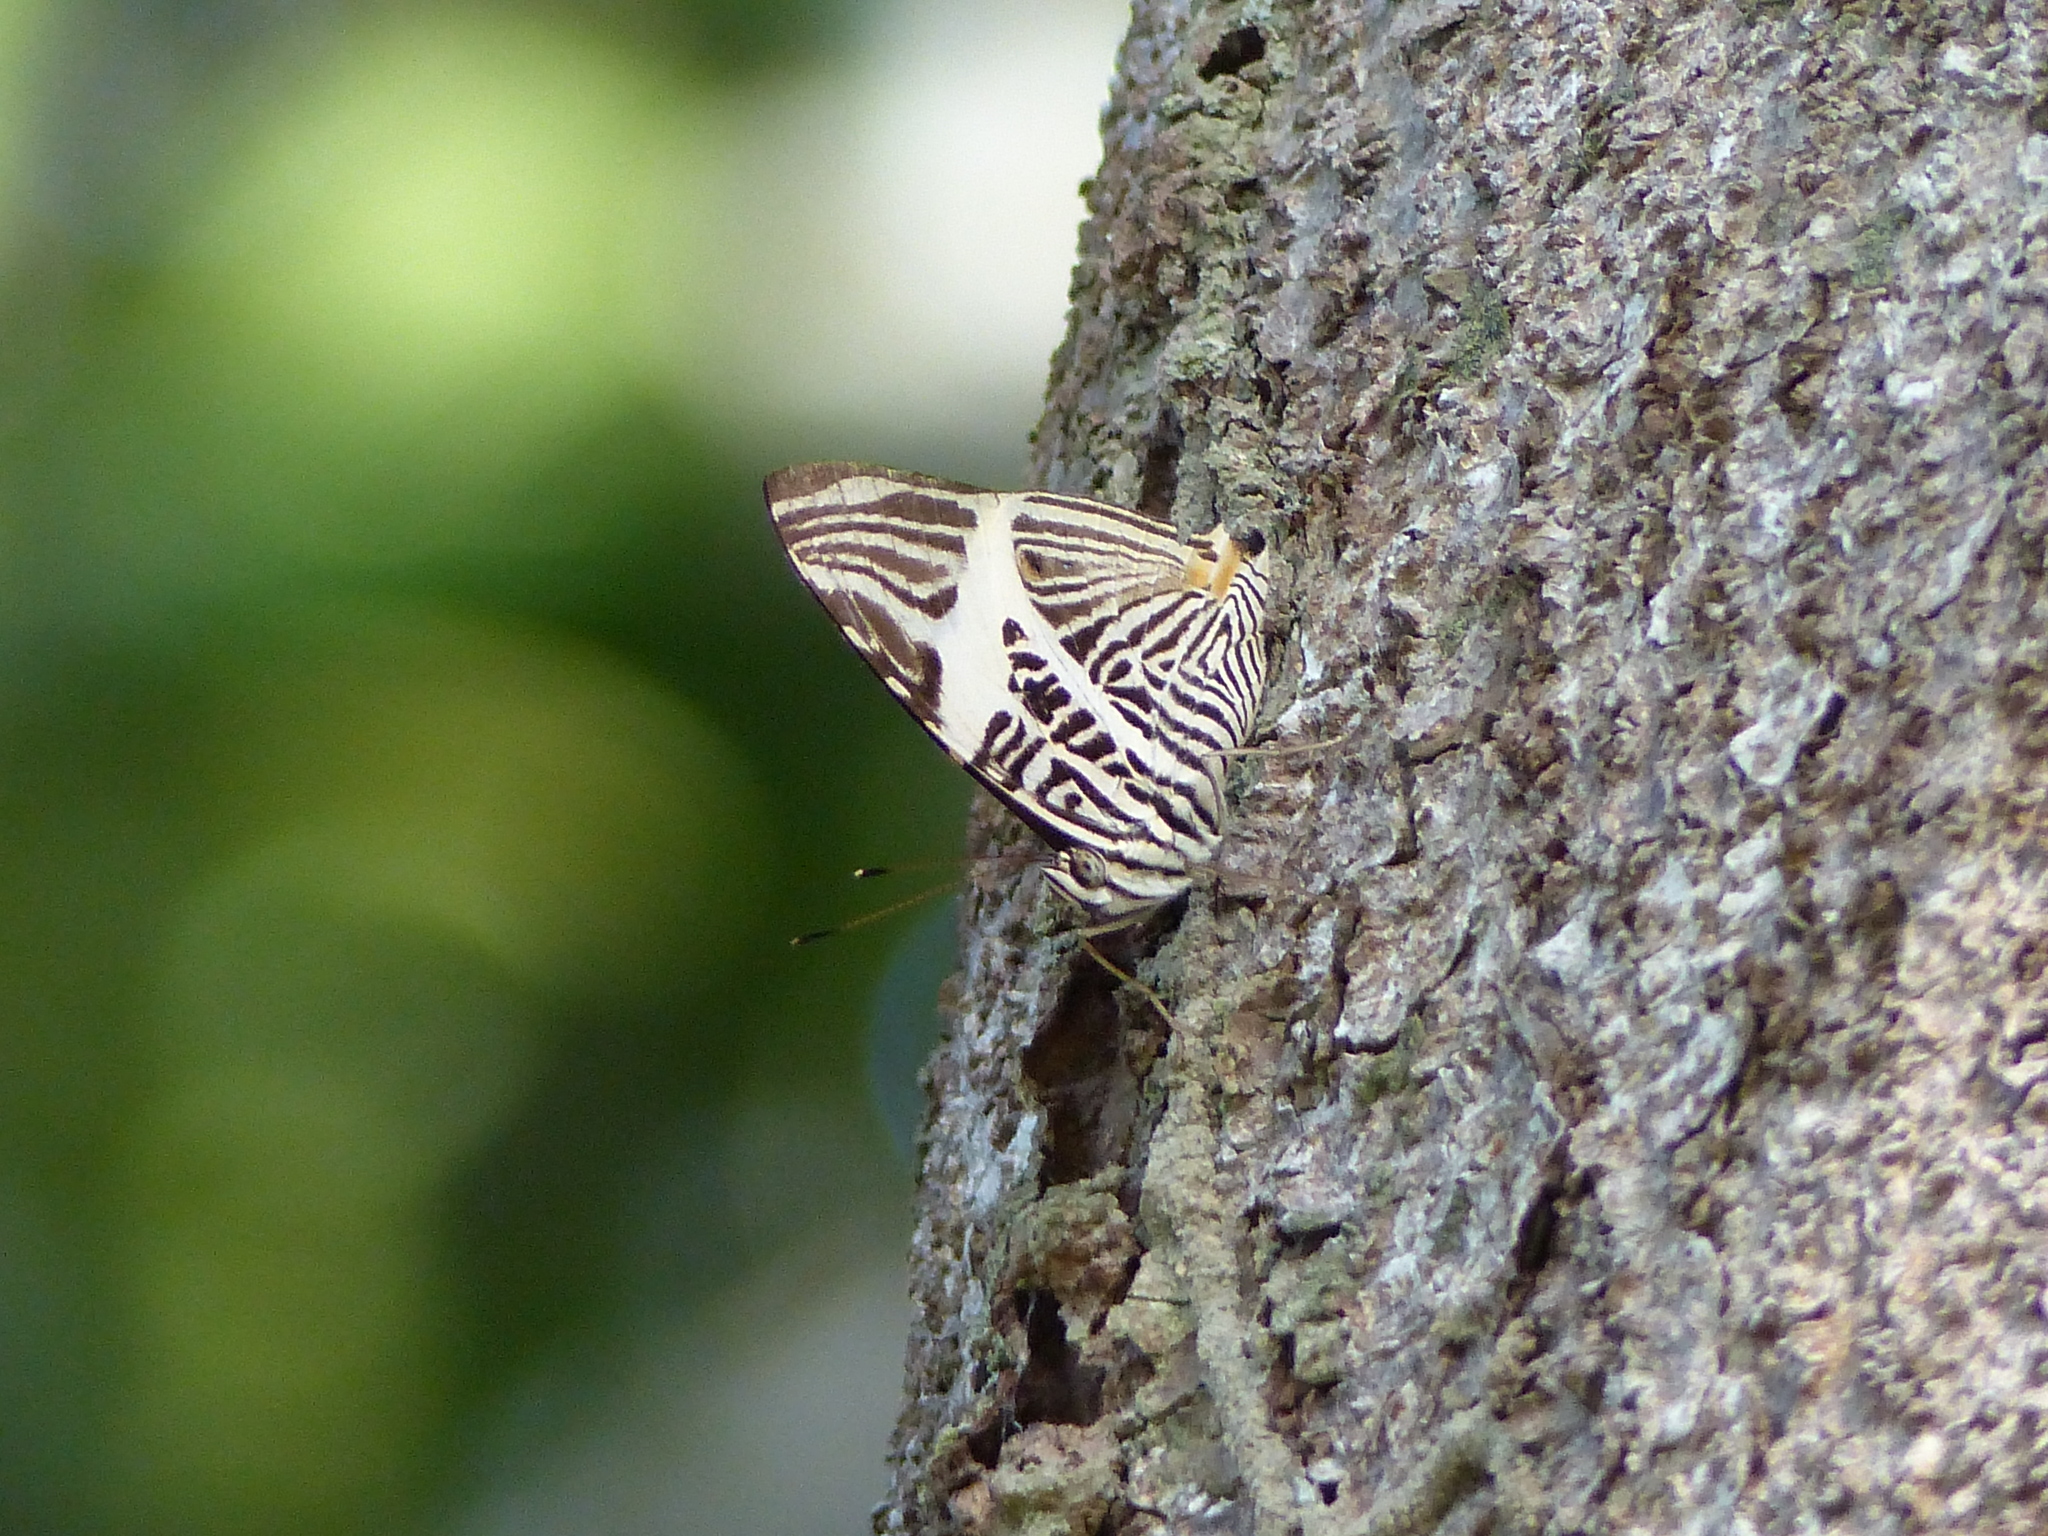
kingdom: Animalia
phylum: Arthropoda
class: Insecta
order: Lepidoptera
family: Nymphalidae
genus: Colobura
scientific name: Colobura dirce
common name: Dirce beauty
